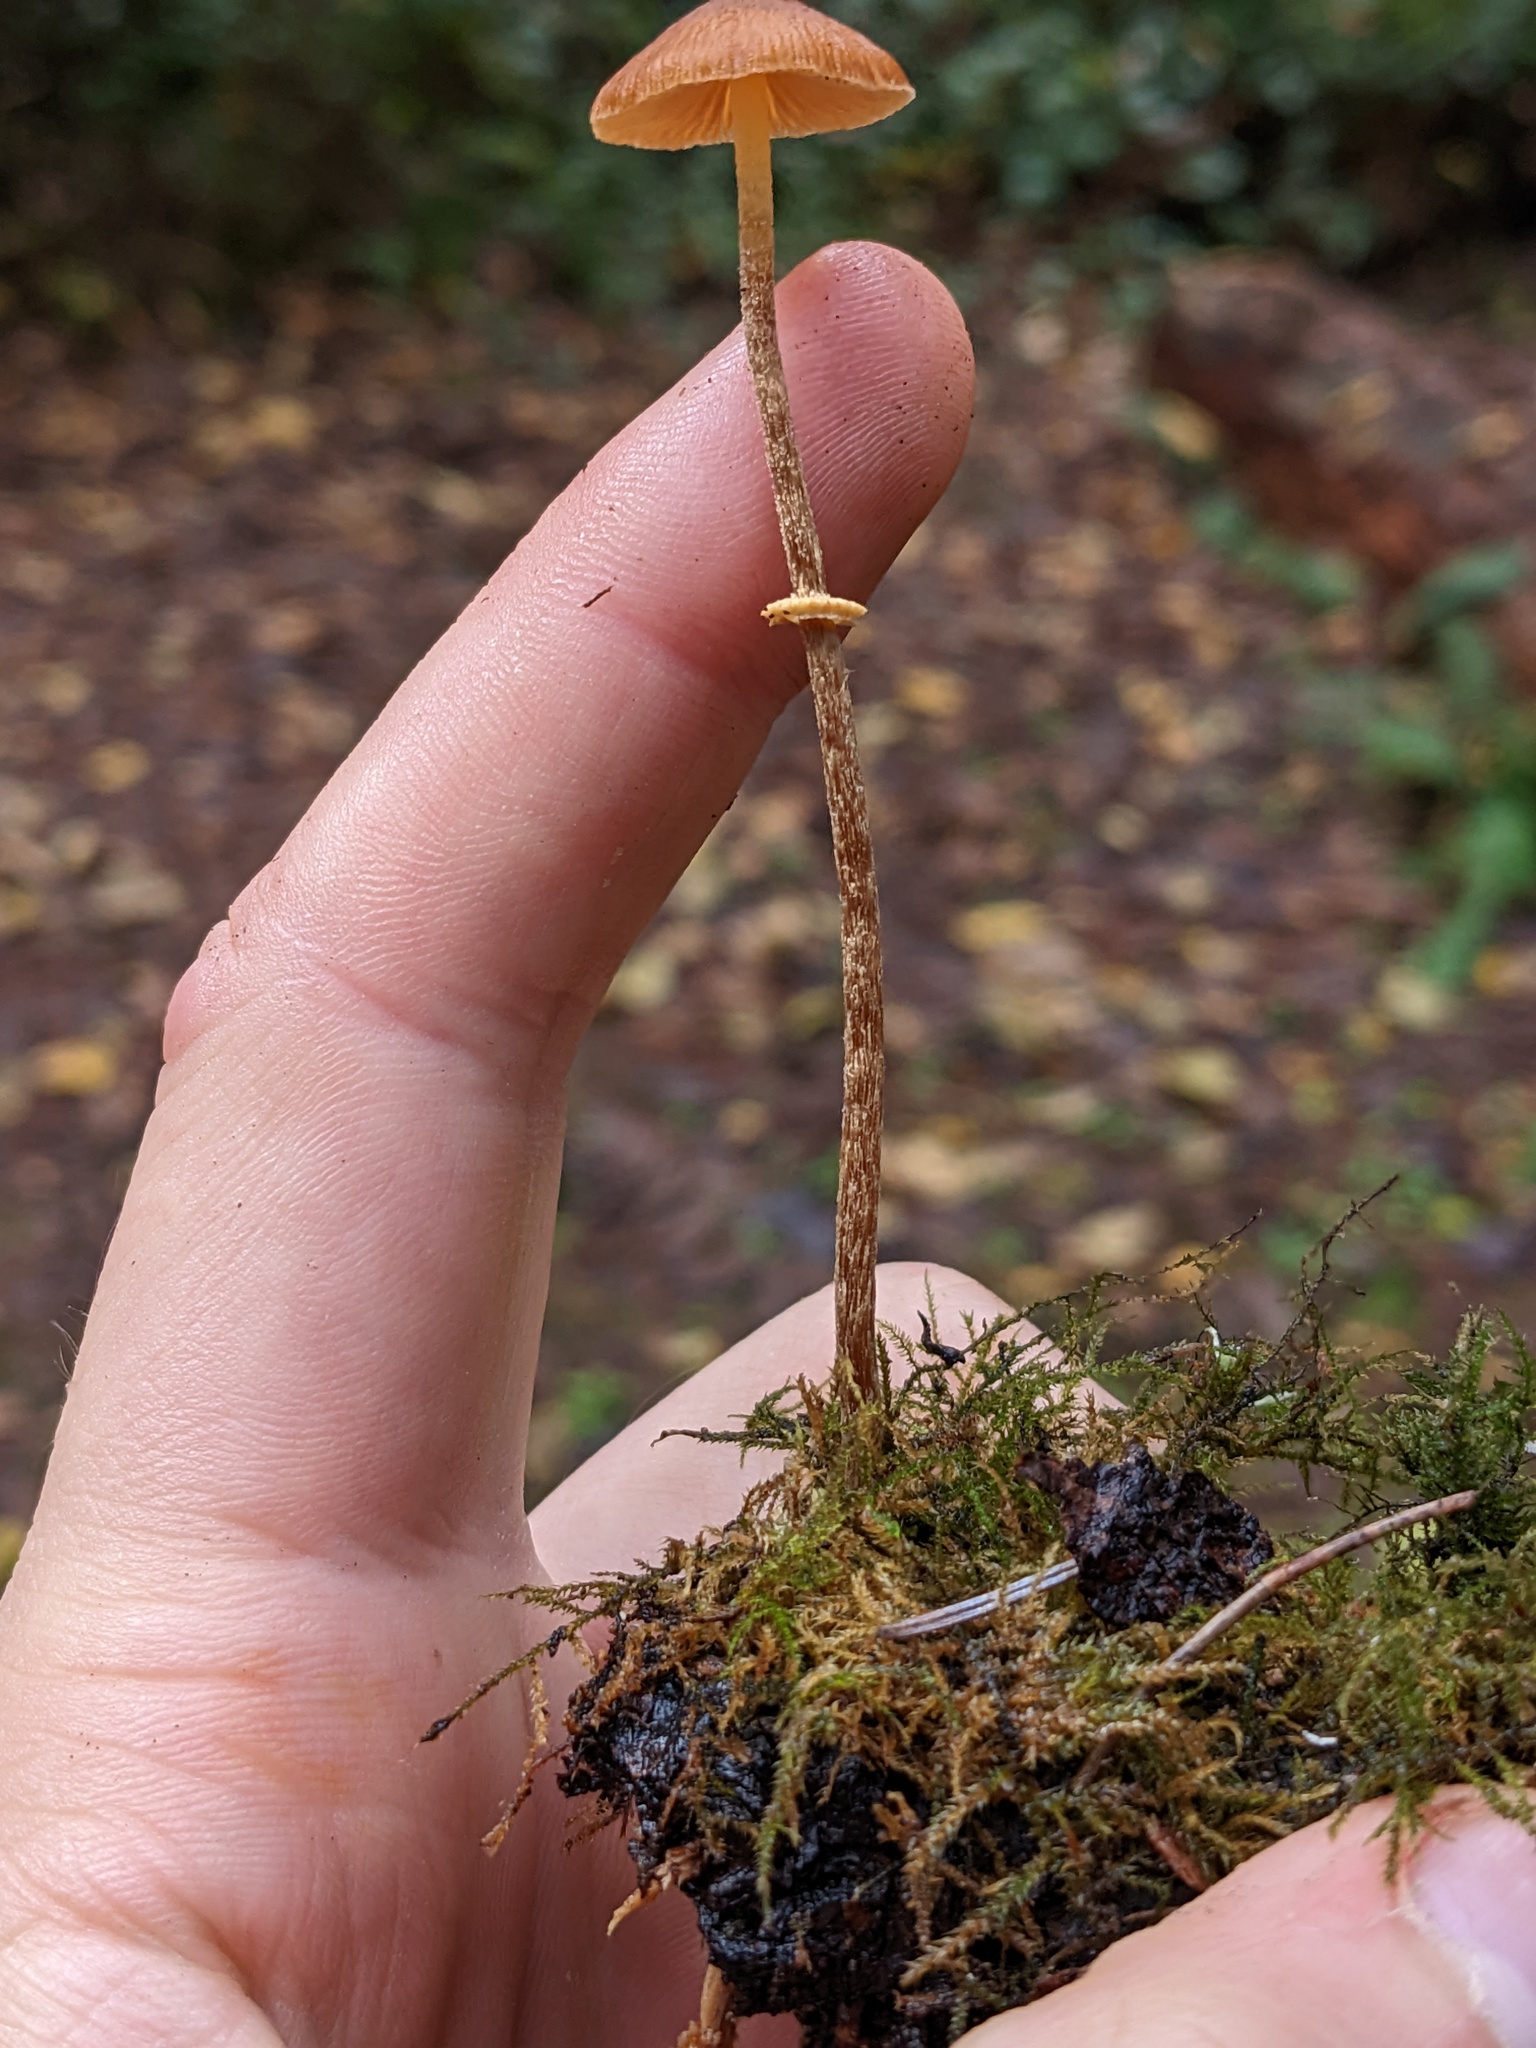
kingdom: Fungi
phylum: Basidiomycota
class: Agaricomycetes
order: Agaricales
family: Bolbitiaceae
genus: Conocybe
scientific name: Conocybe rugosa
